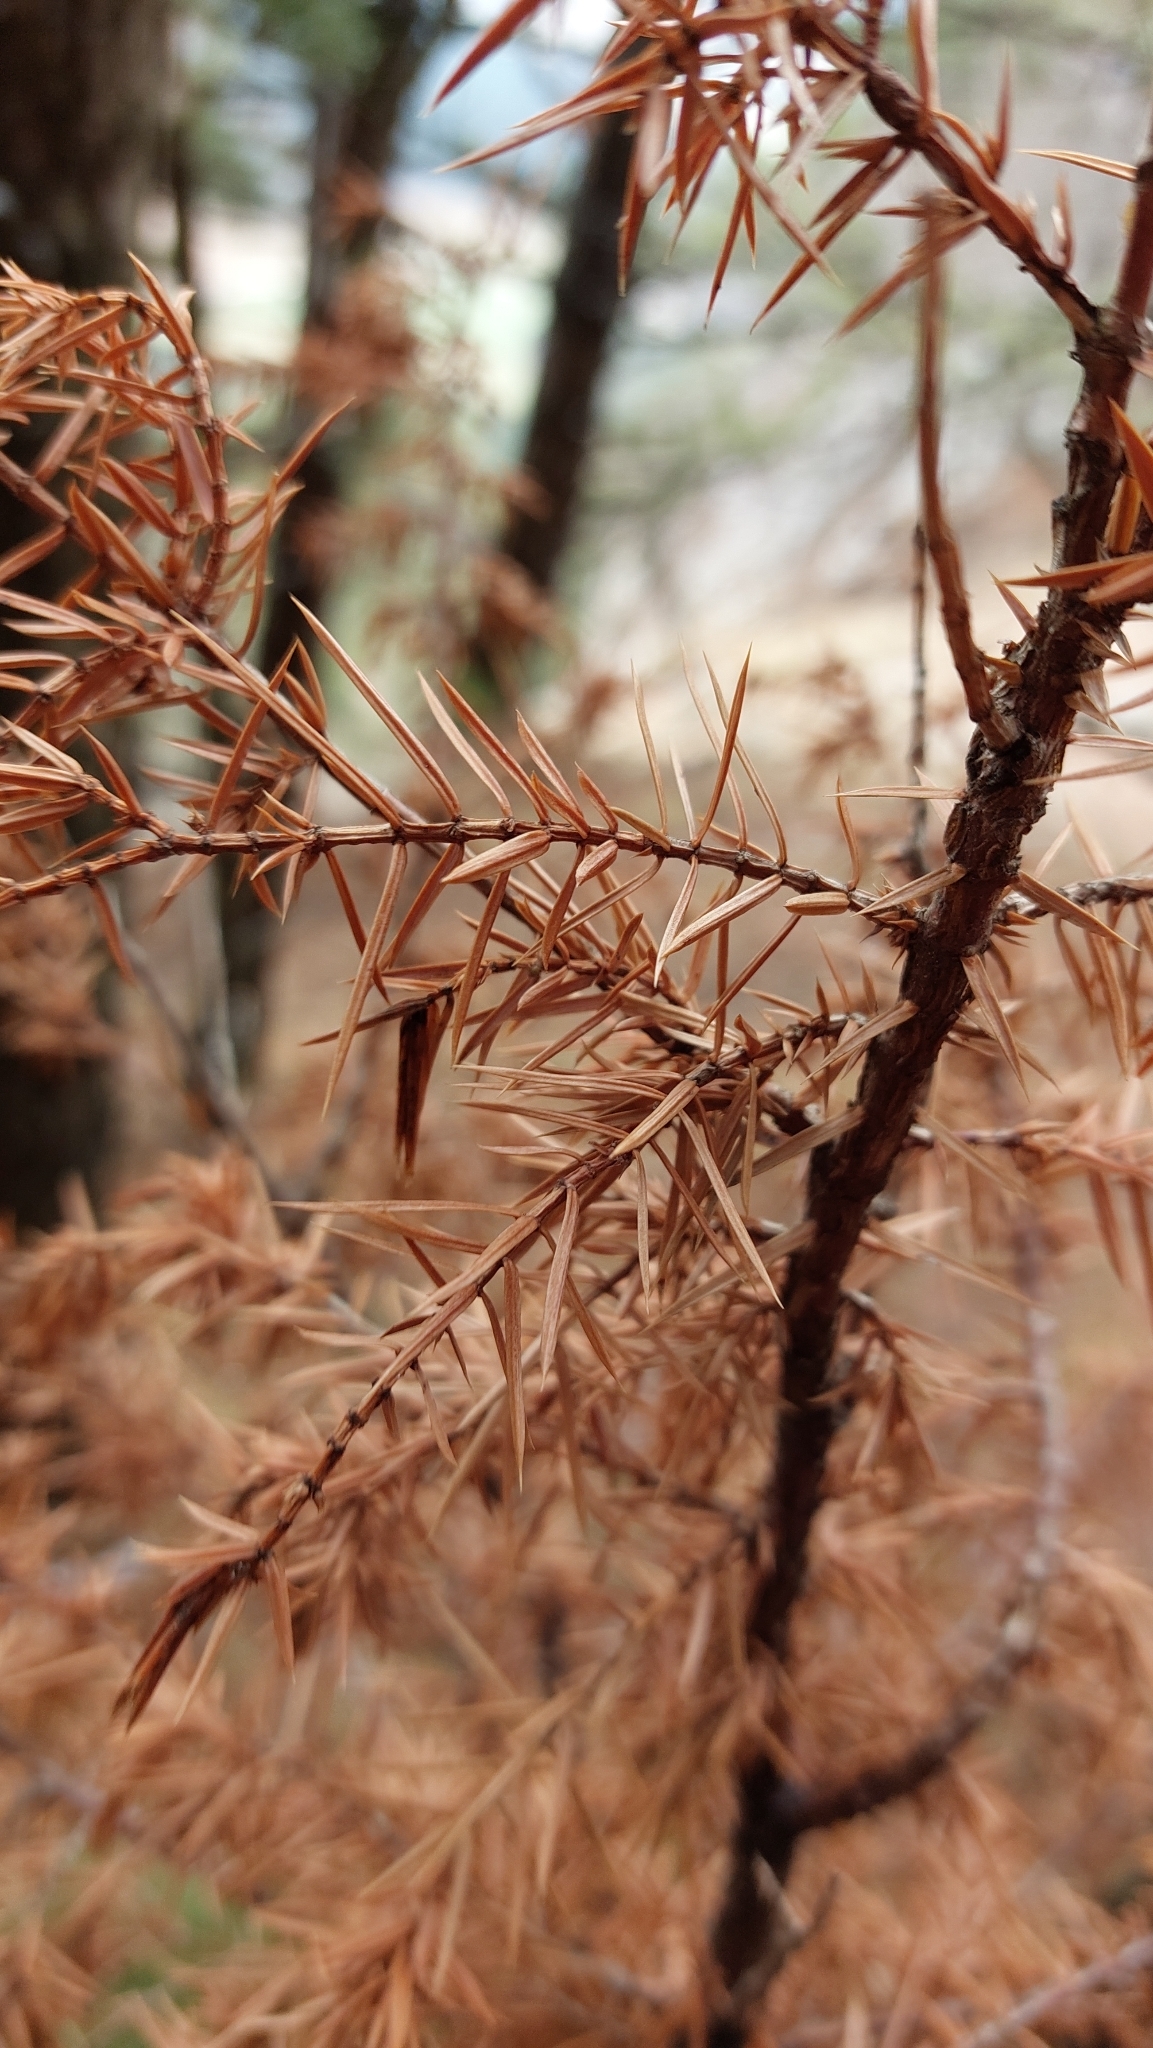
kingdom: Plantae
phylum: Tracheophyta
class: Pinopsida
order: Pinales
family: Cupressaceae
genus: Juniperus
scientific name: Juniperus communis
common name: Common juniper
